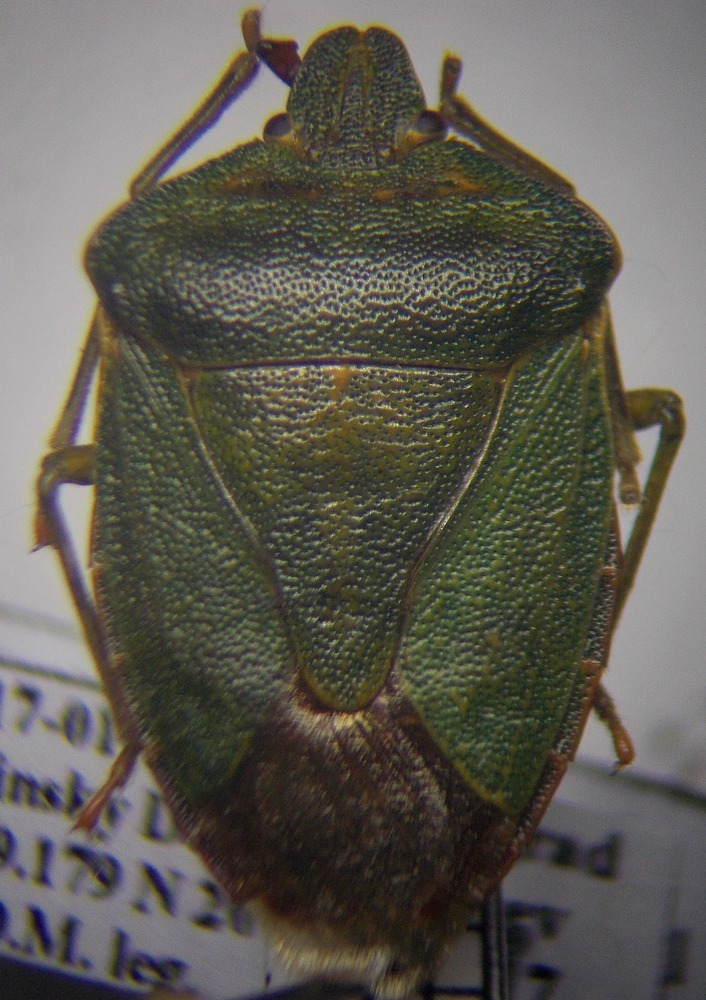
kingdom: Animalia
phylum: Arthropoda
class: Insecta
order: Hemiptera
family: Pentatomidae
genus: Palomena
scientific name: Palomena prasina
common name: Green shieldbug
